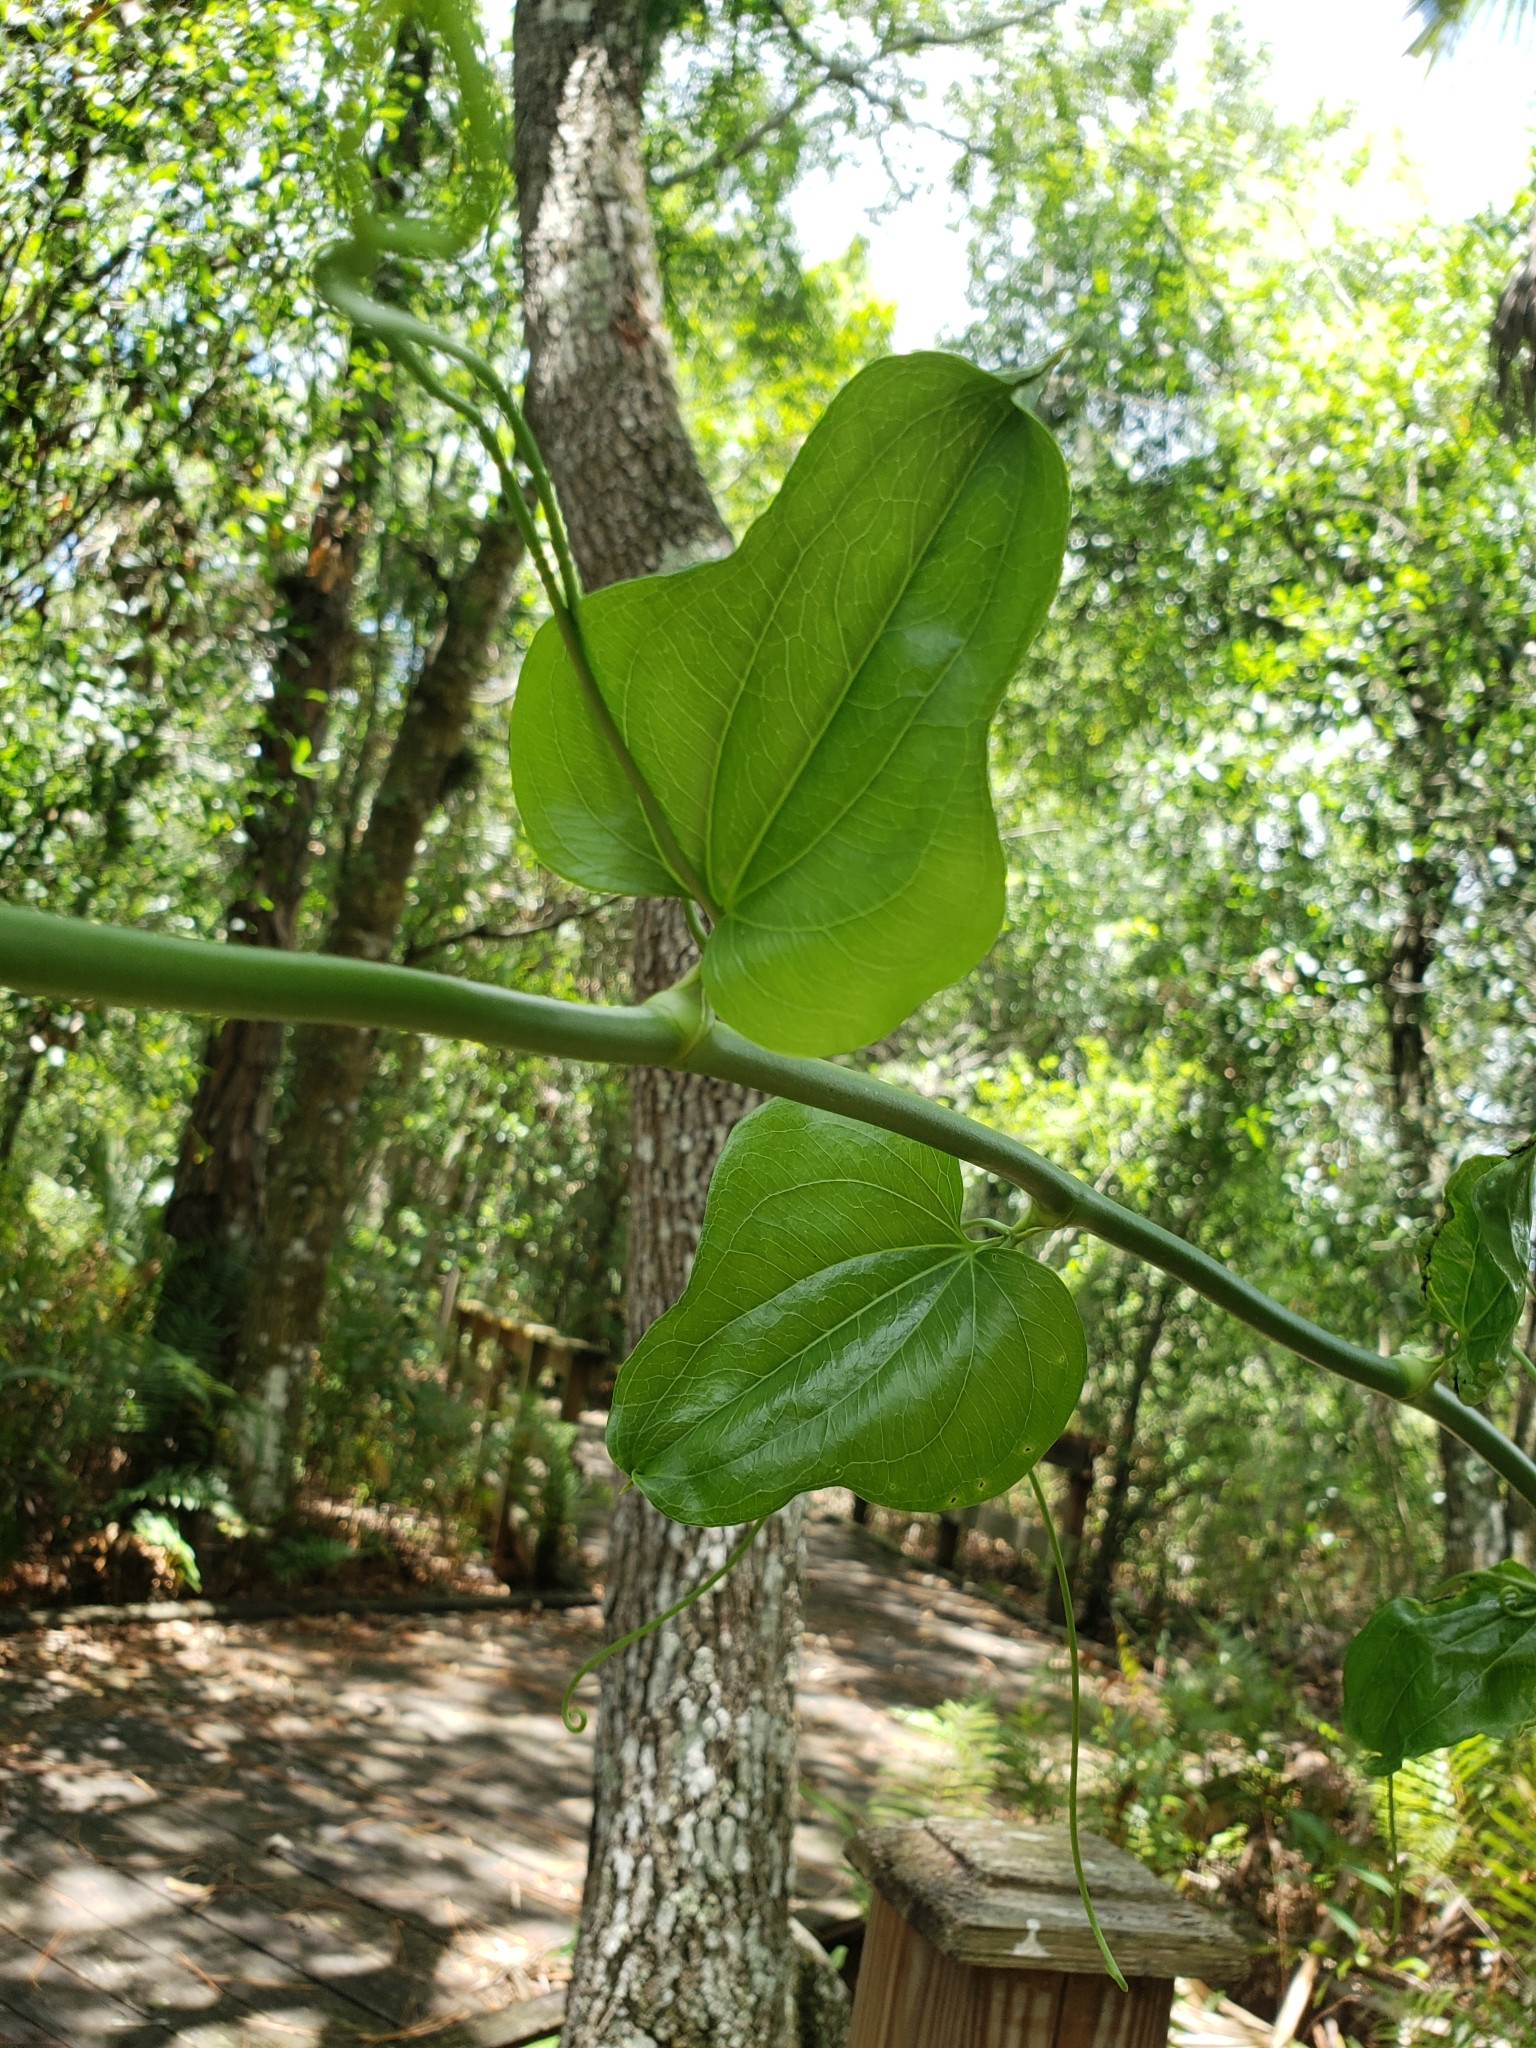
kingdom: Plantae
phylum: Tracheophyta
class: Liliopsida
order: Liliales
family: Smilacaceae
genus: Smilax
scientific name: Smilax tamnoides
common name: Hellfetter
